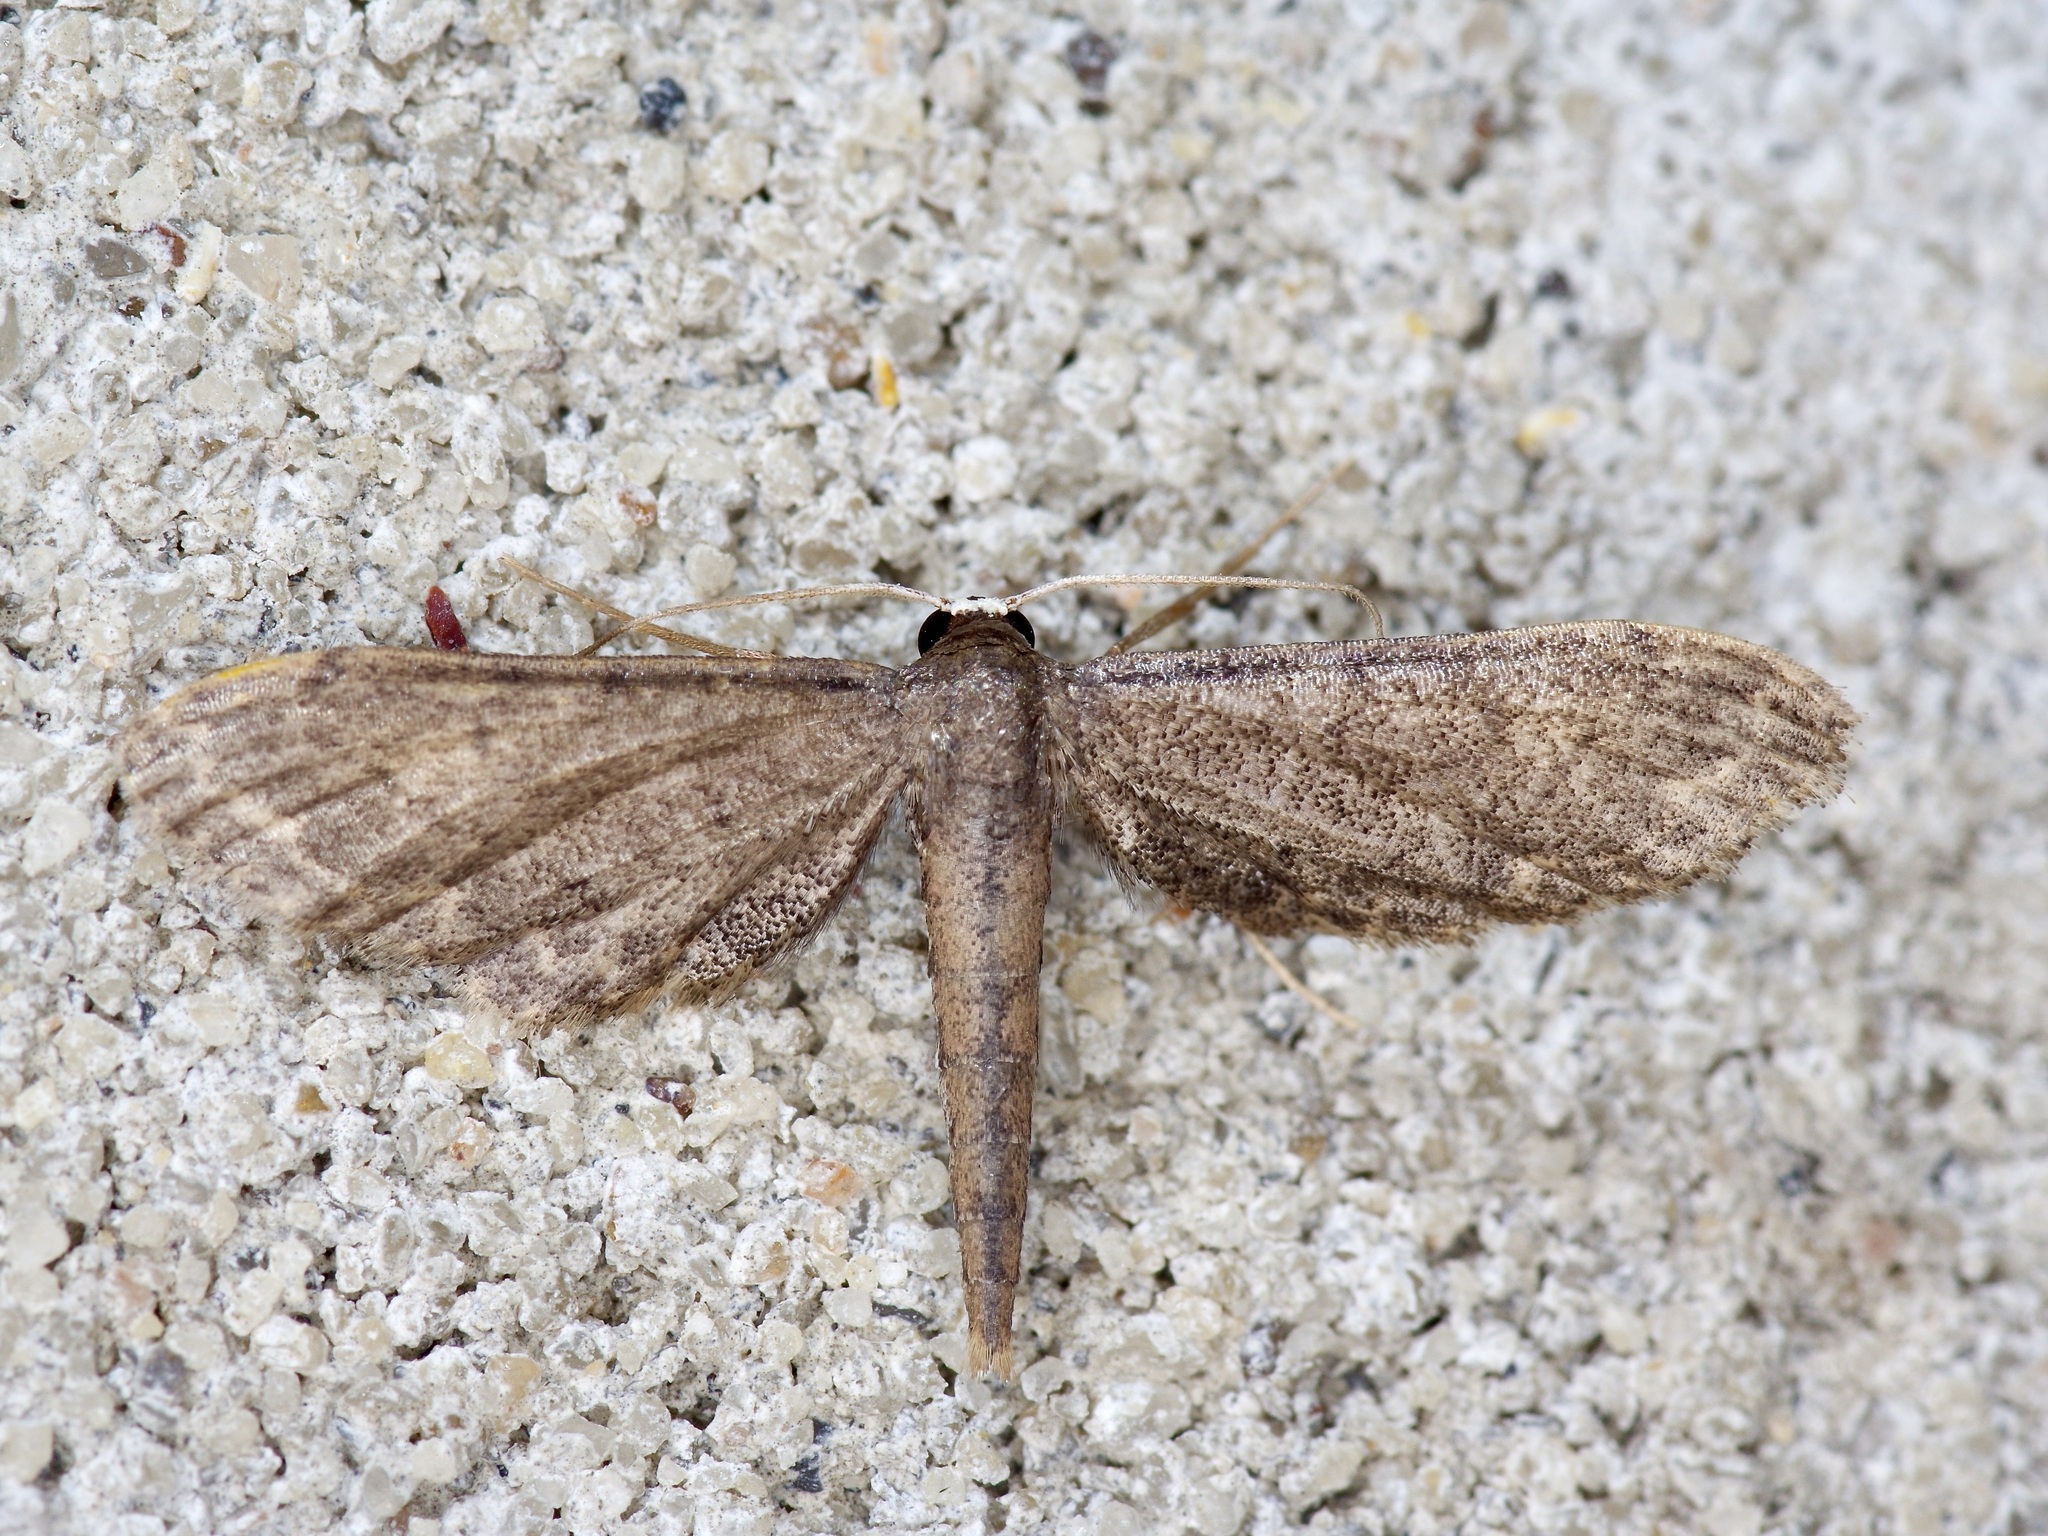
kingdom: Animalia
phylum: Arthropoda
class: Insecta
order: Lepidoptera
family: Geometridae
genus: Protoproutia
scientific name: Protoproutia laredoata
